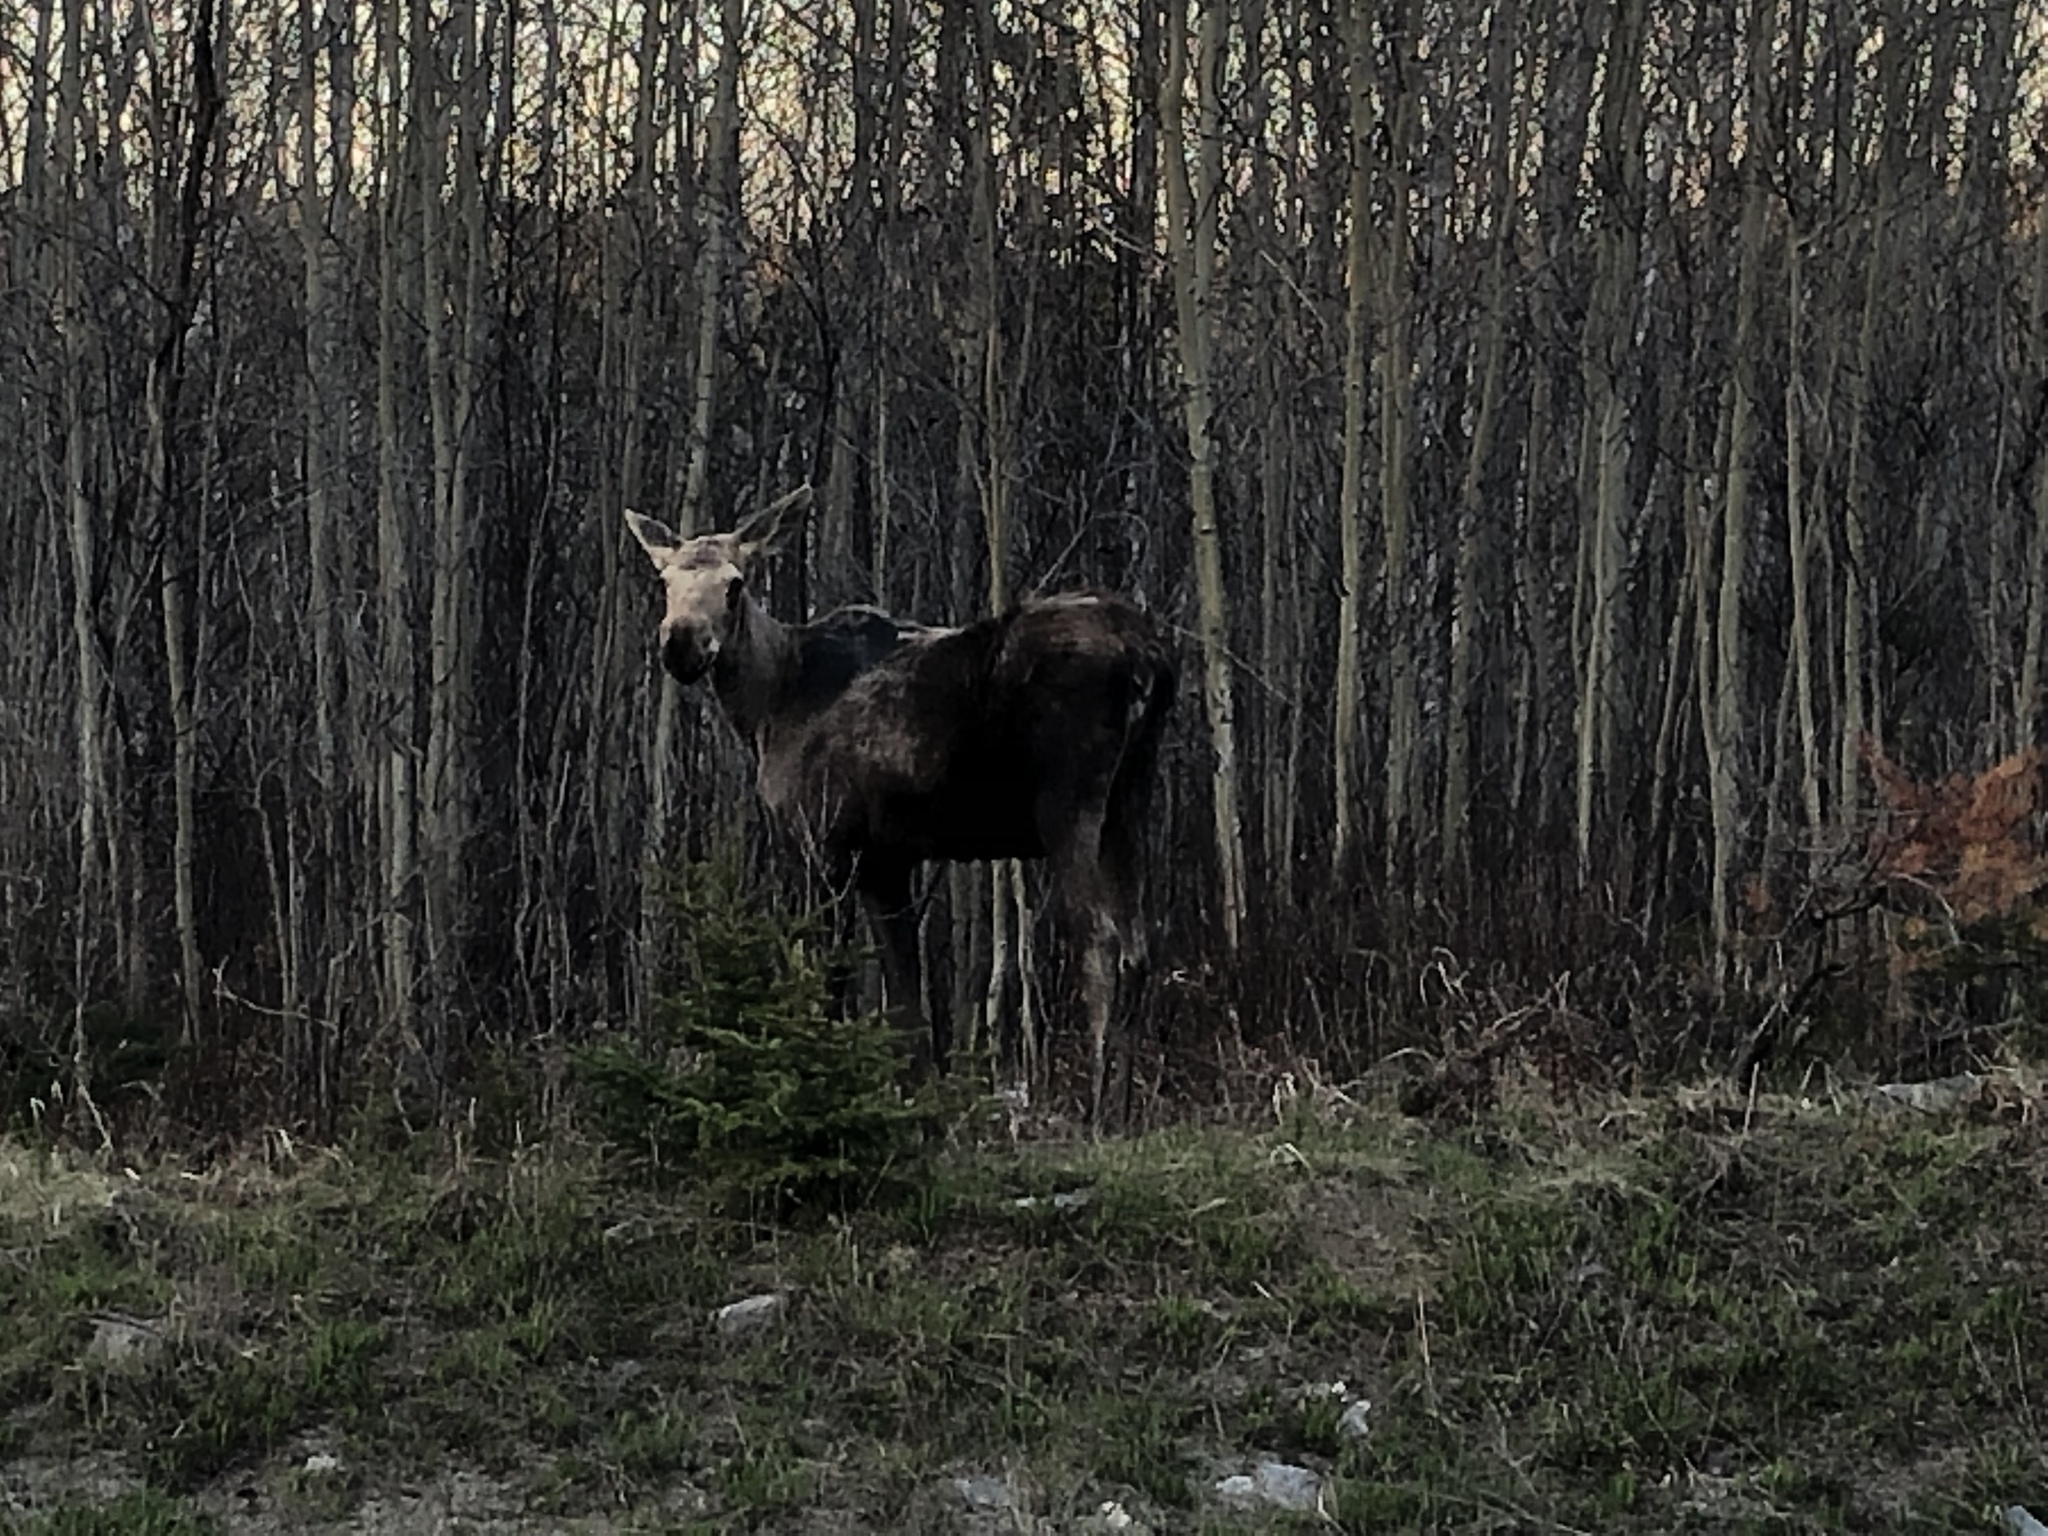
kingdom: Animalia
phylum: Chordata
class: Mammalia
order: Artiodactyla
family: Cervidae
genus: Alces
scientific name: Alces alces
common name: Moose
